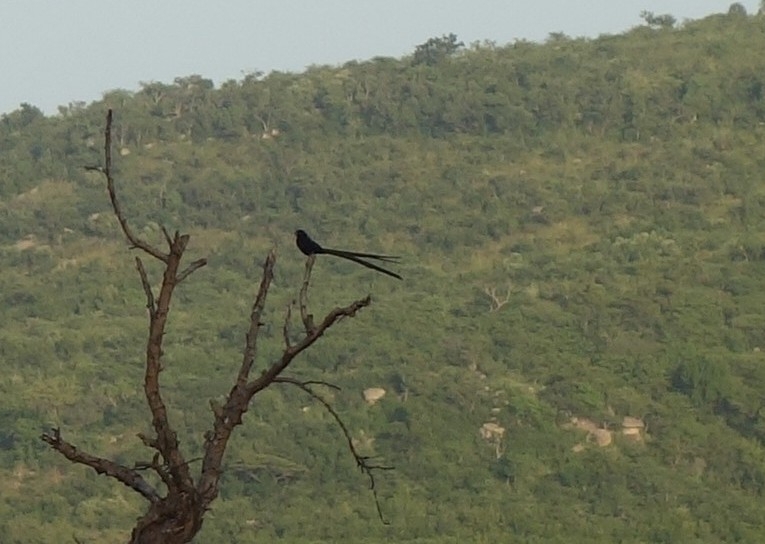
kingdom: Animalia
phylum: Chordata
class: Aves
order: Passeriformes
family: Ploceidae
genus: Euplectes
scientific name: Euplectes ardens
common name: Red-collared widowbird
